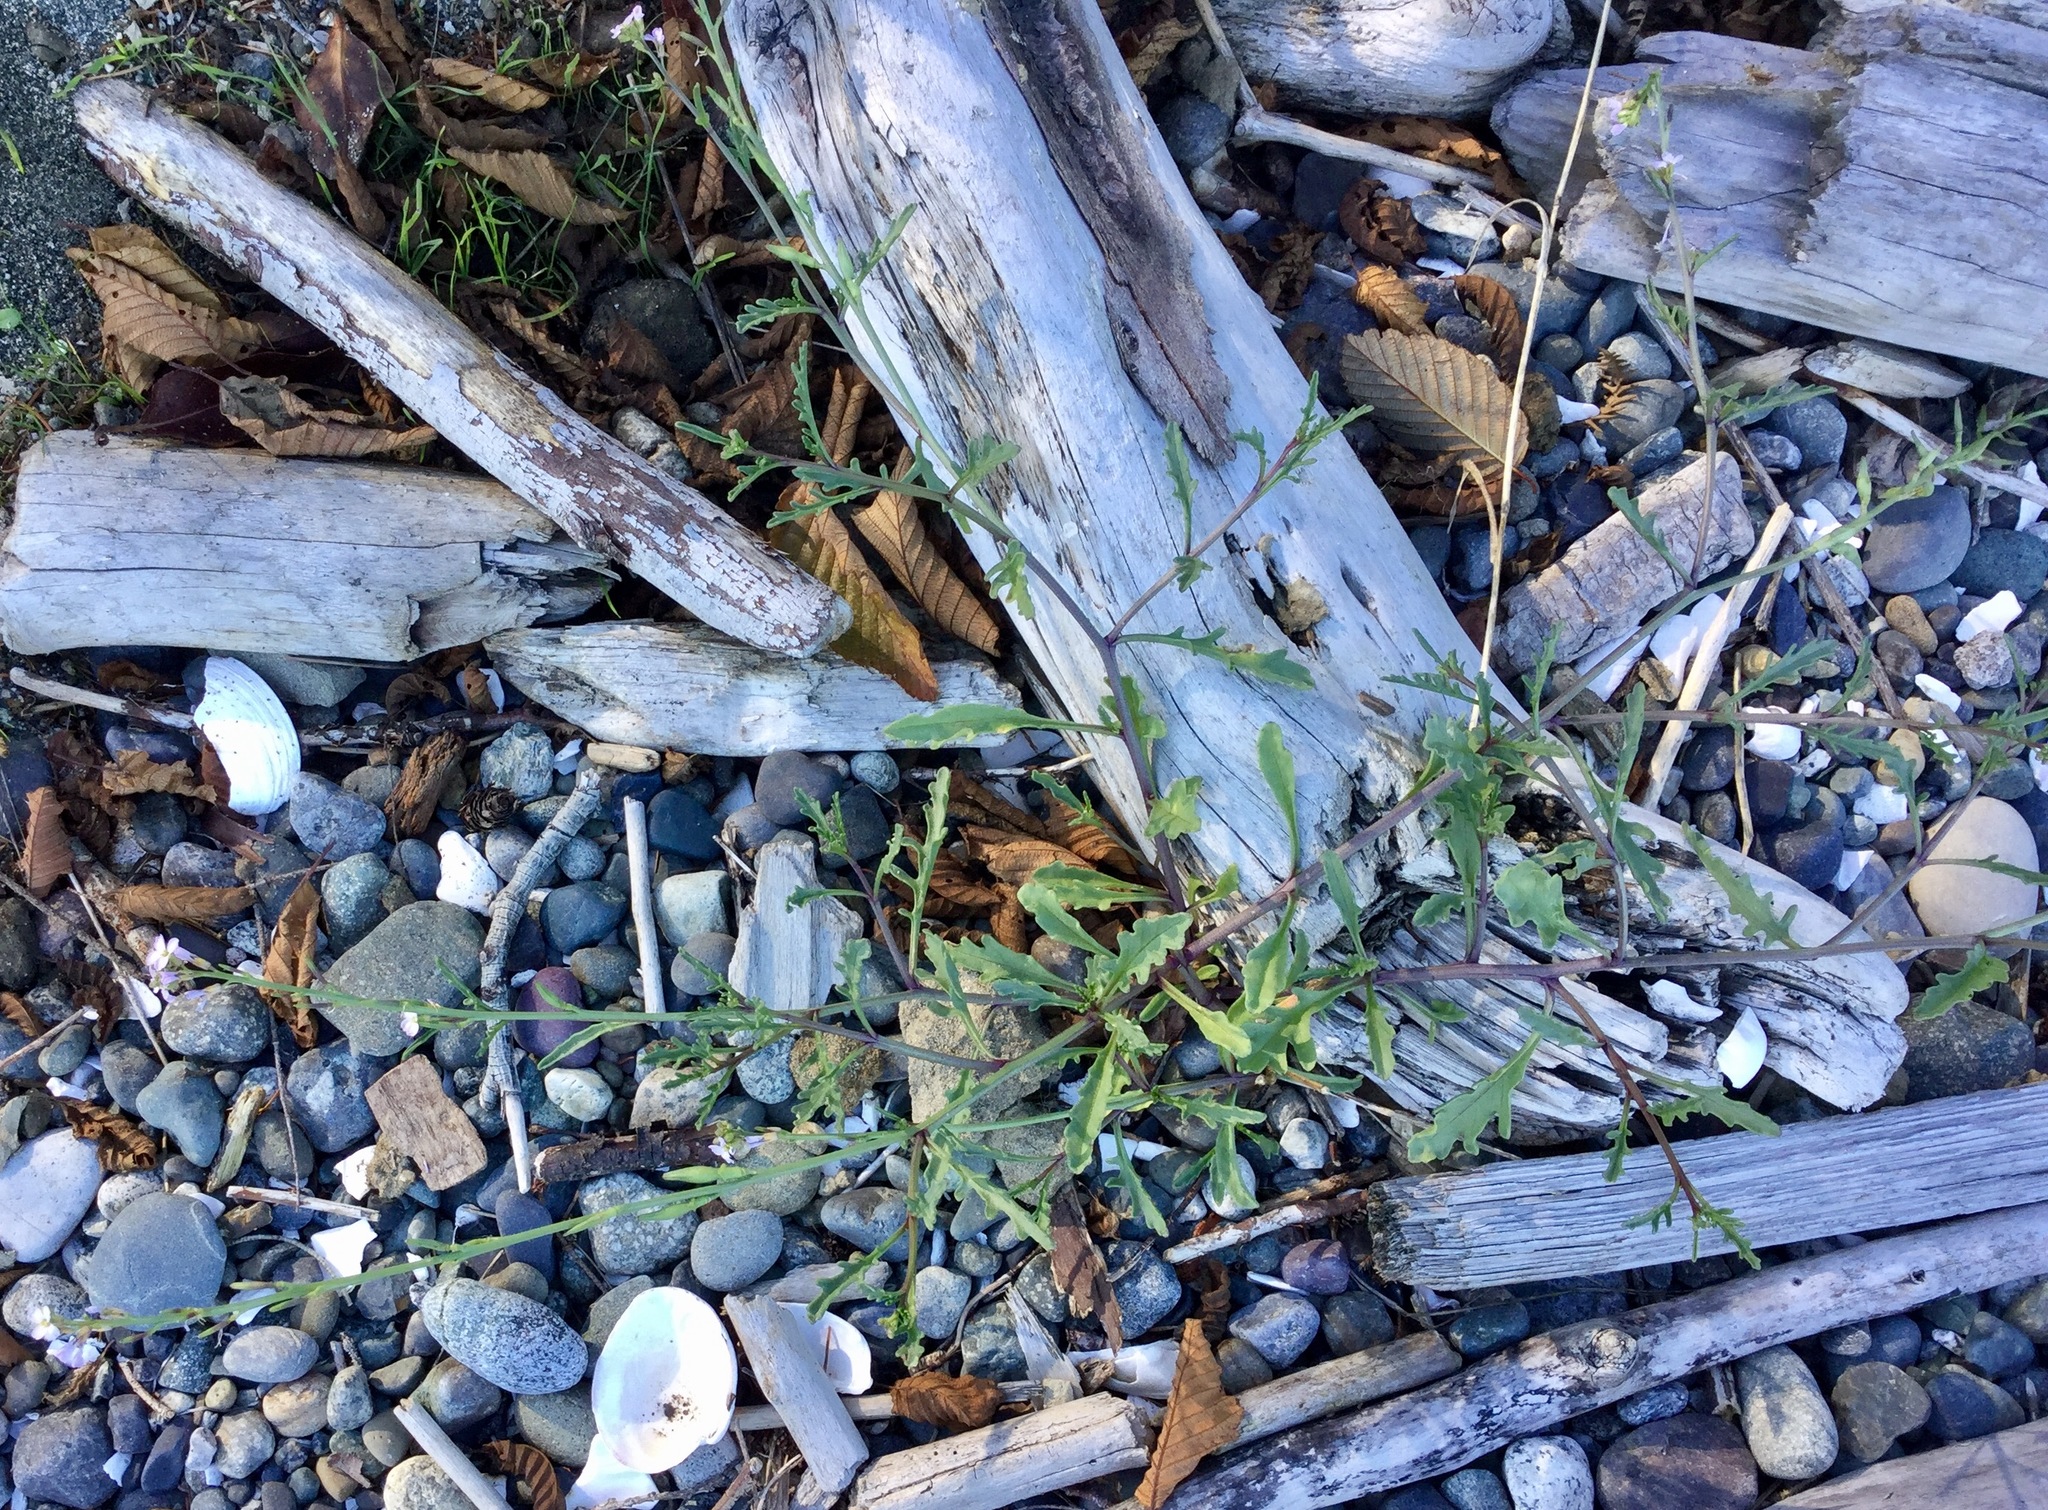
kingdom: Plantae
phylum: Tracheophyta
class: Magnoliopsida
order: Brassicales
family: Brassicaceae
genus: Cakile
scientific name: Cakile edentula
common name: American sea rocket
